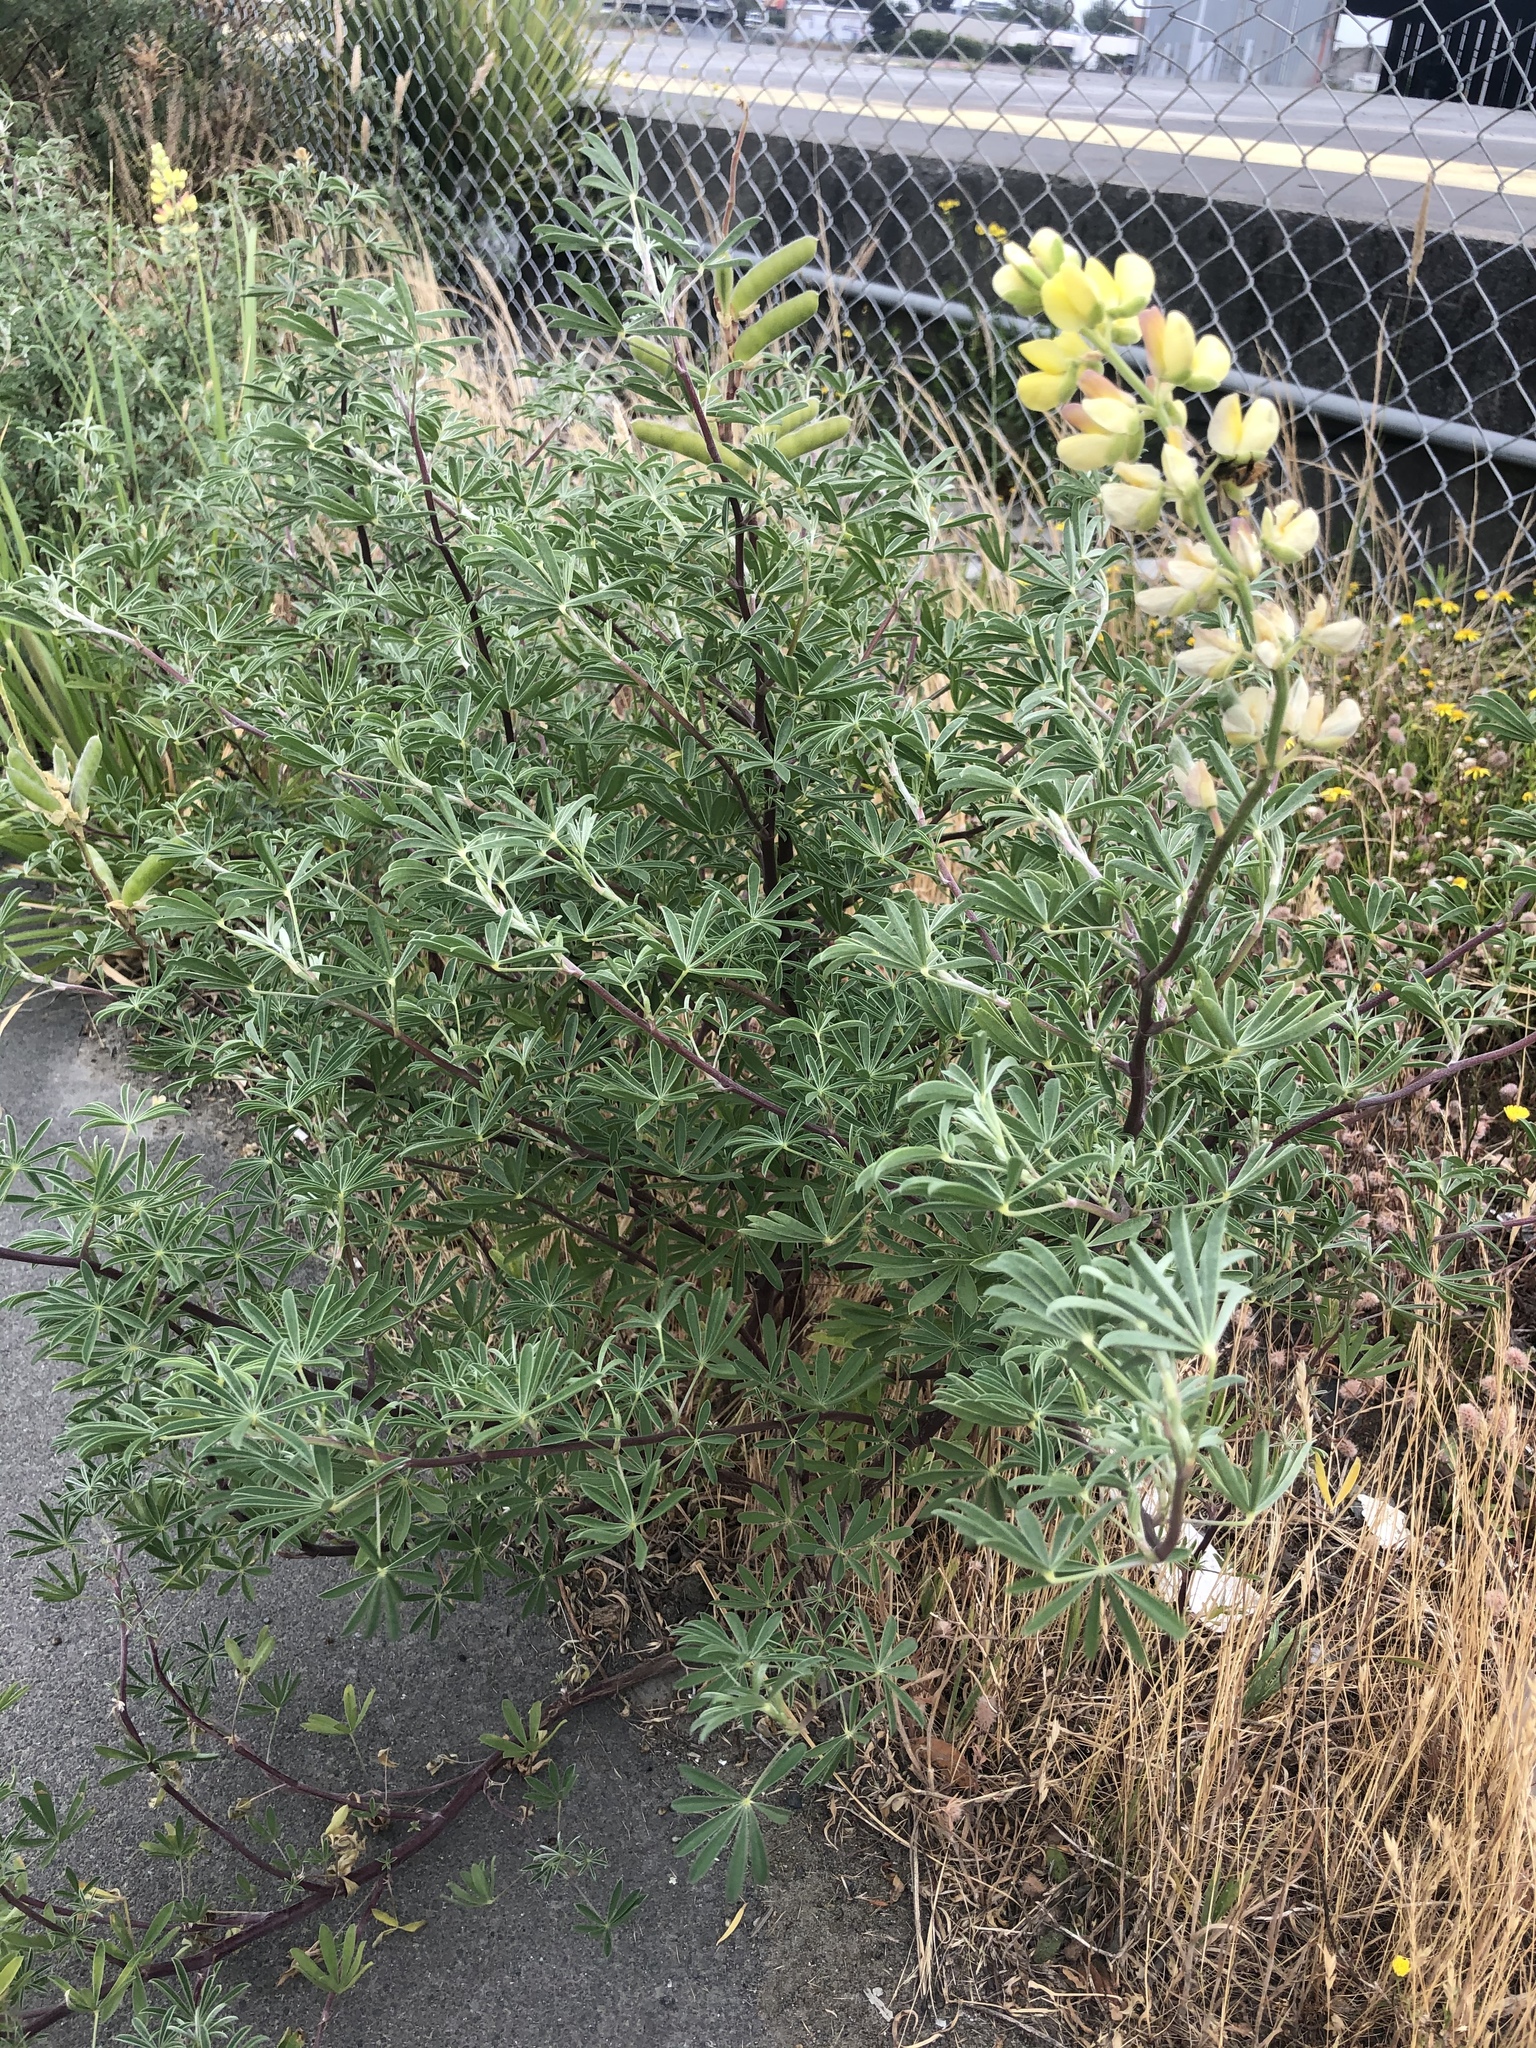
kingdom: Plantae
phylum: Tracheophyta
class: Magnoliopsida
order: Fabales
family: Fabaceae
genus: Lupinus
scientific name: Lupinus arboreus
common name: Yellow bush lupine
